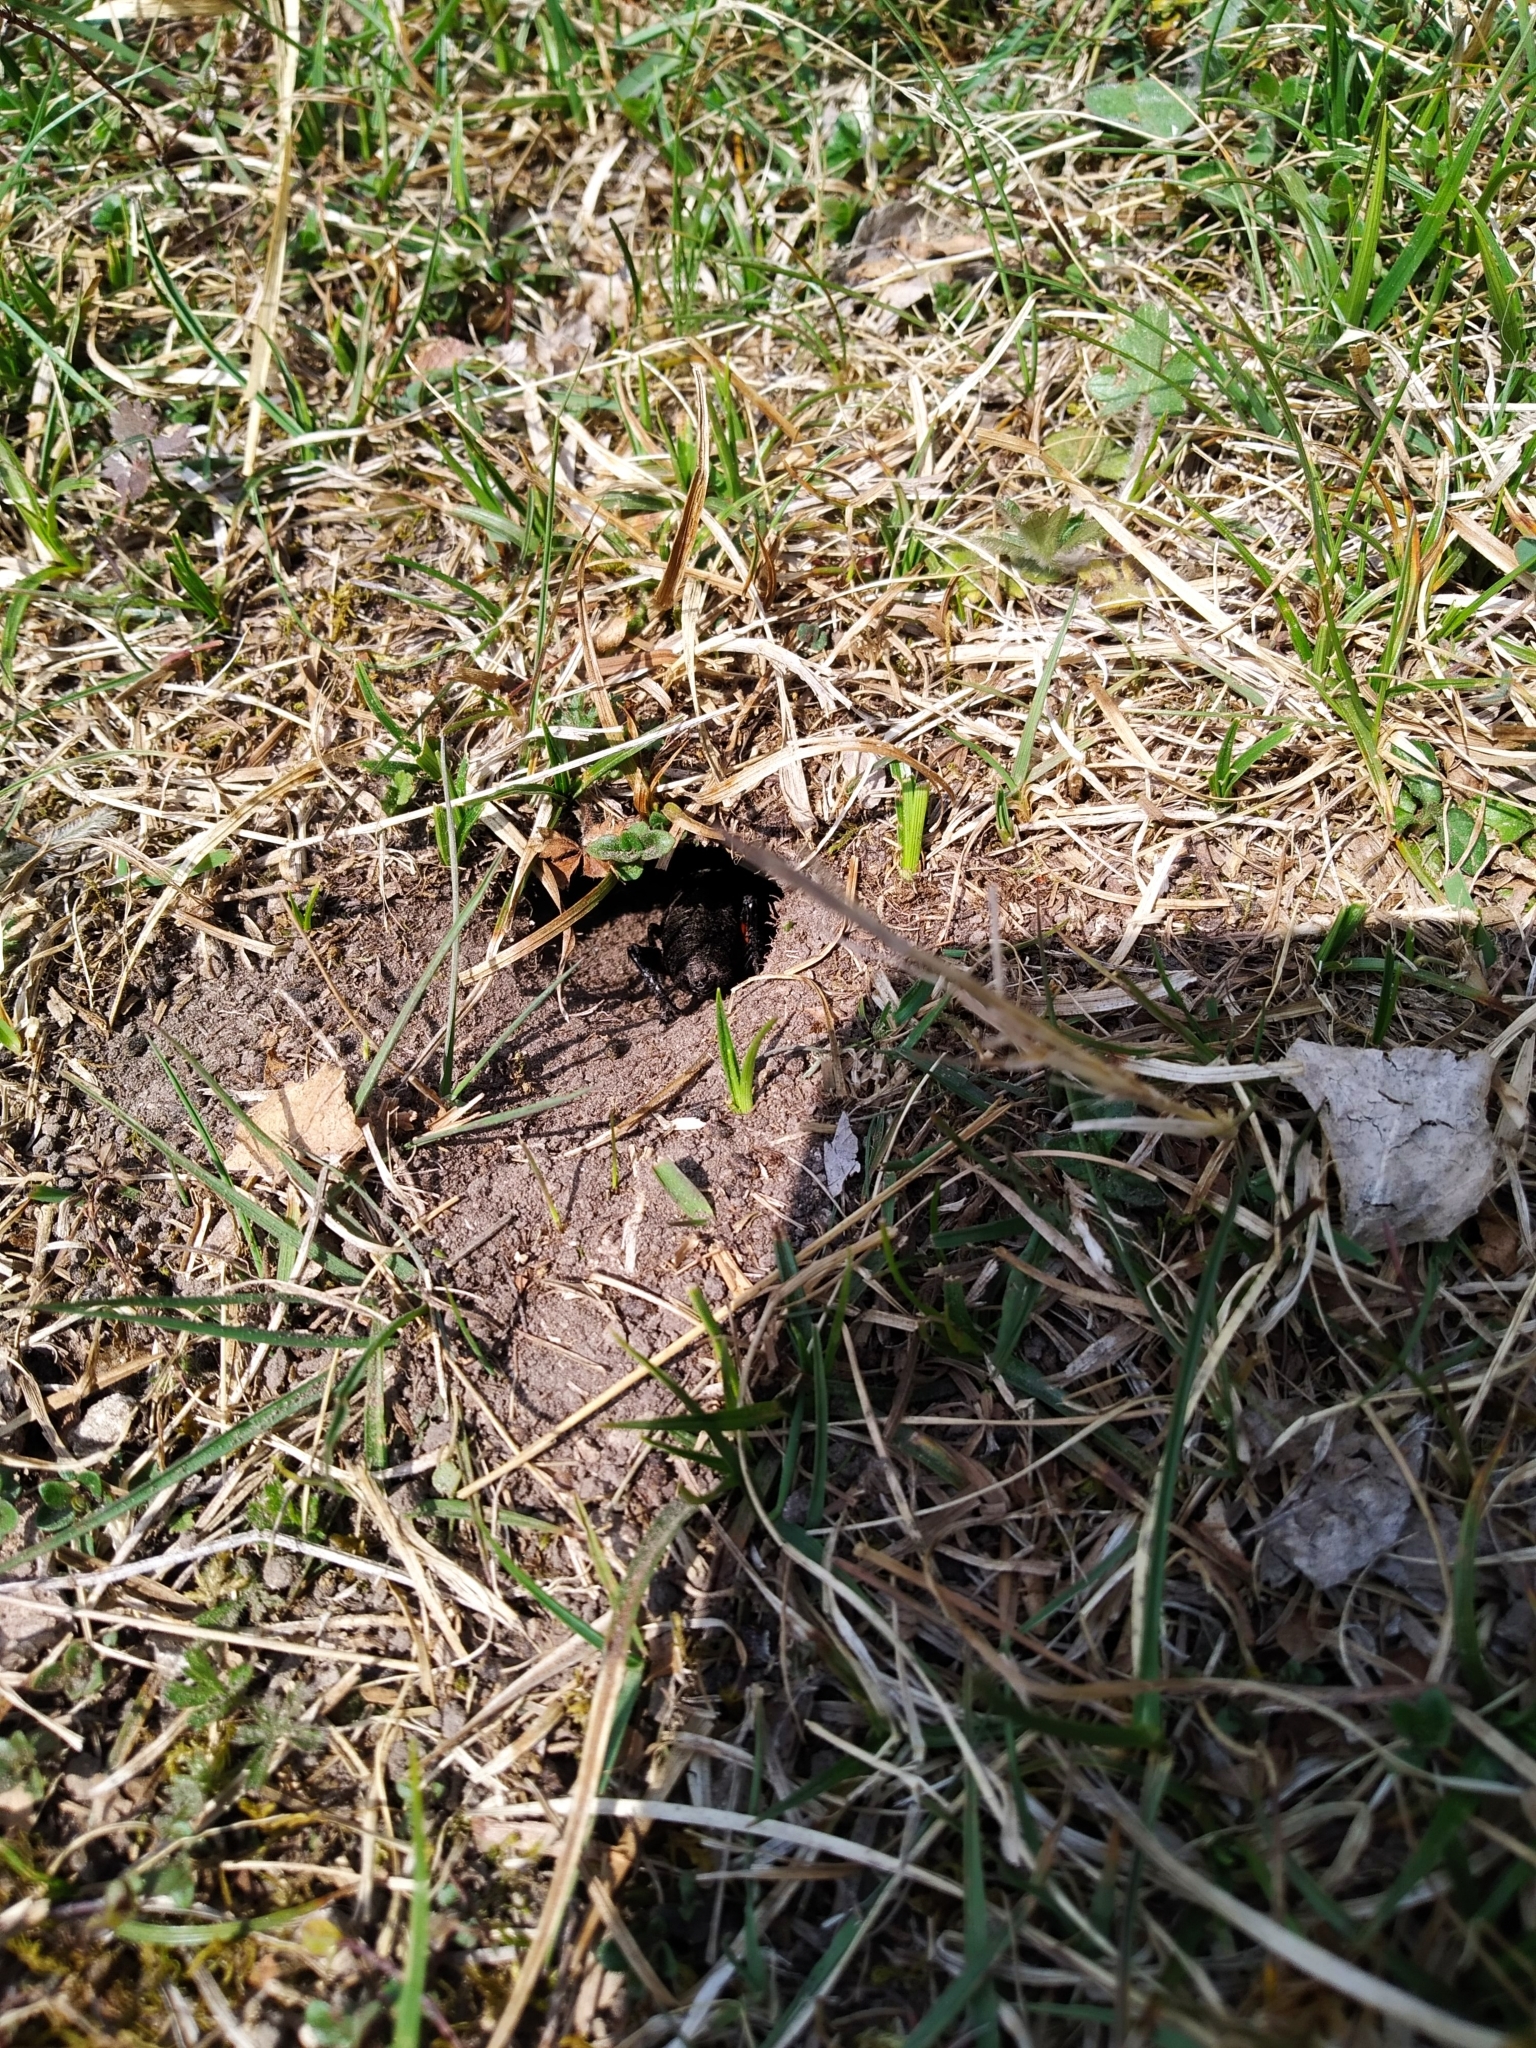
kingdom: Animalia
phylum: Arthropoda
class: Insecta
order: Orthoptera
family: Gryllidae
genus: Gryllus
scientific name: Gryllus campestris
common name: Field cricket
